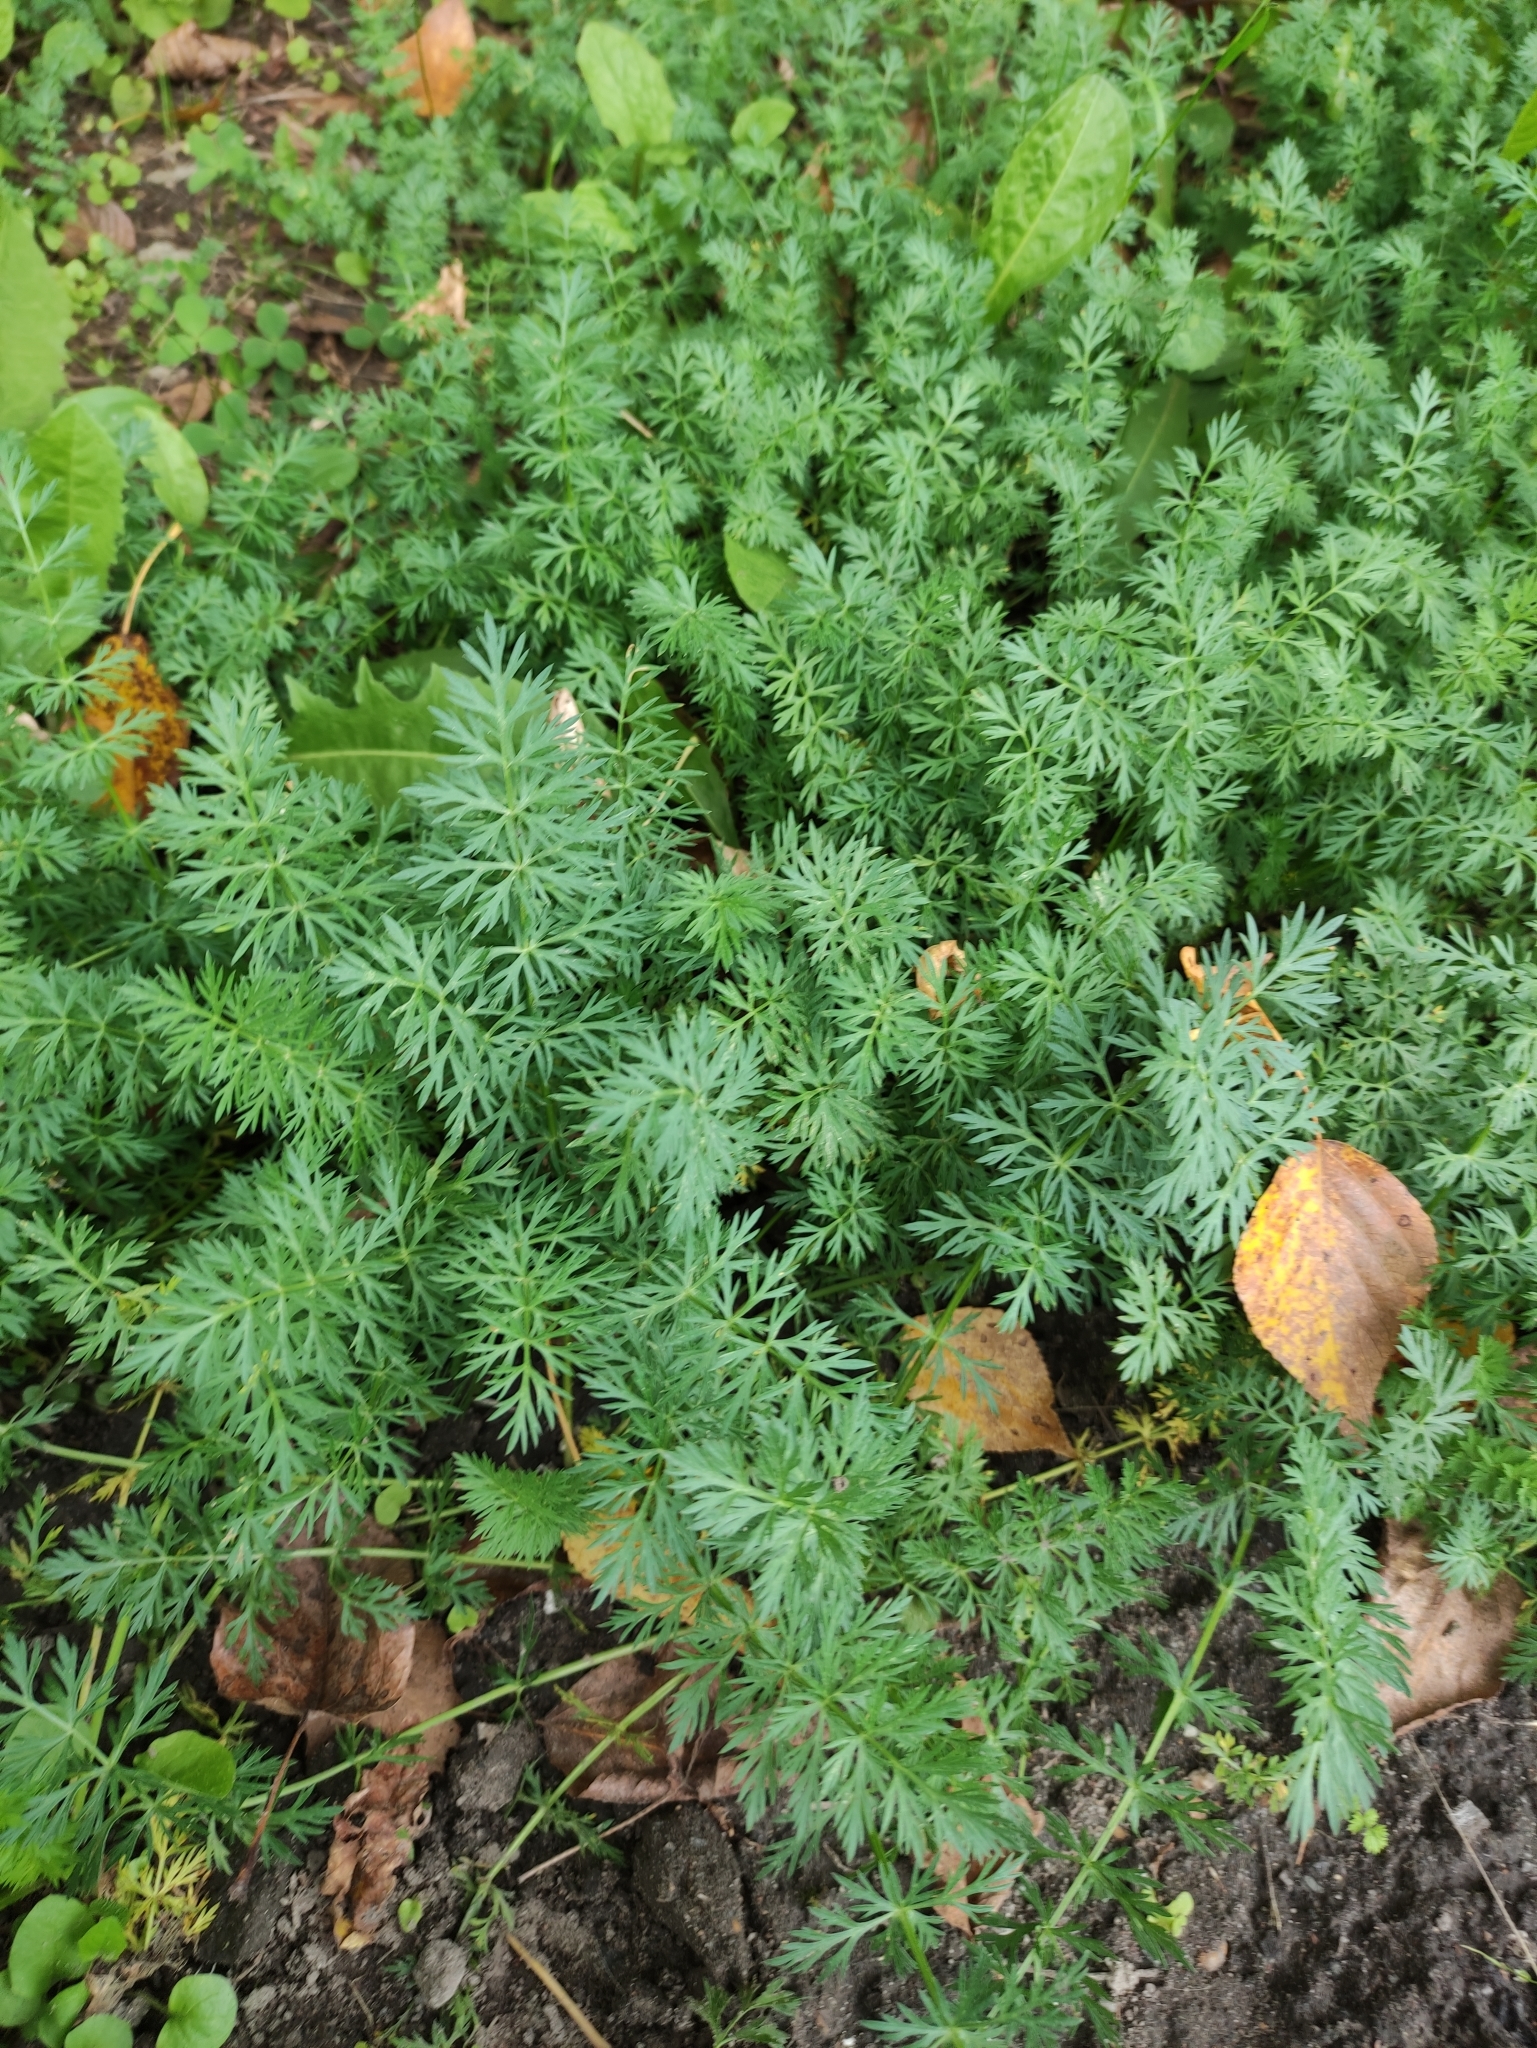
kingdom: Plantae
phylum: Tracheophyta
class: Magnoliopsida
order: Apiales
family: Apiaceae
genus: Carum
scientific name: Carum carvi
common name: Caraway
